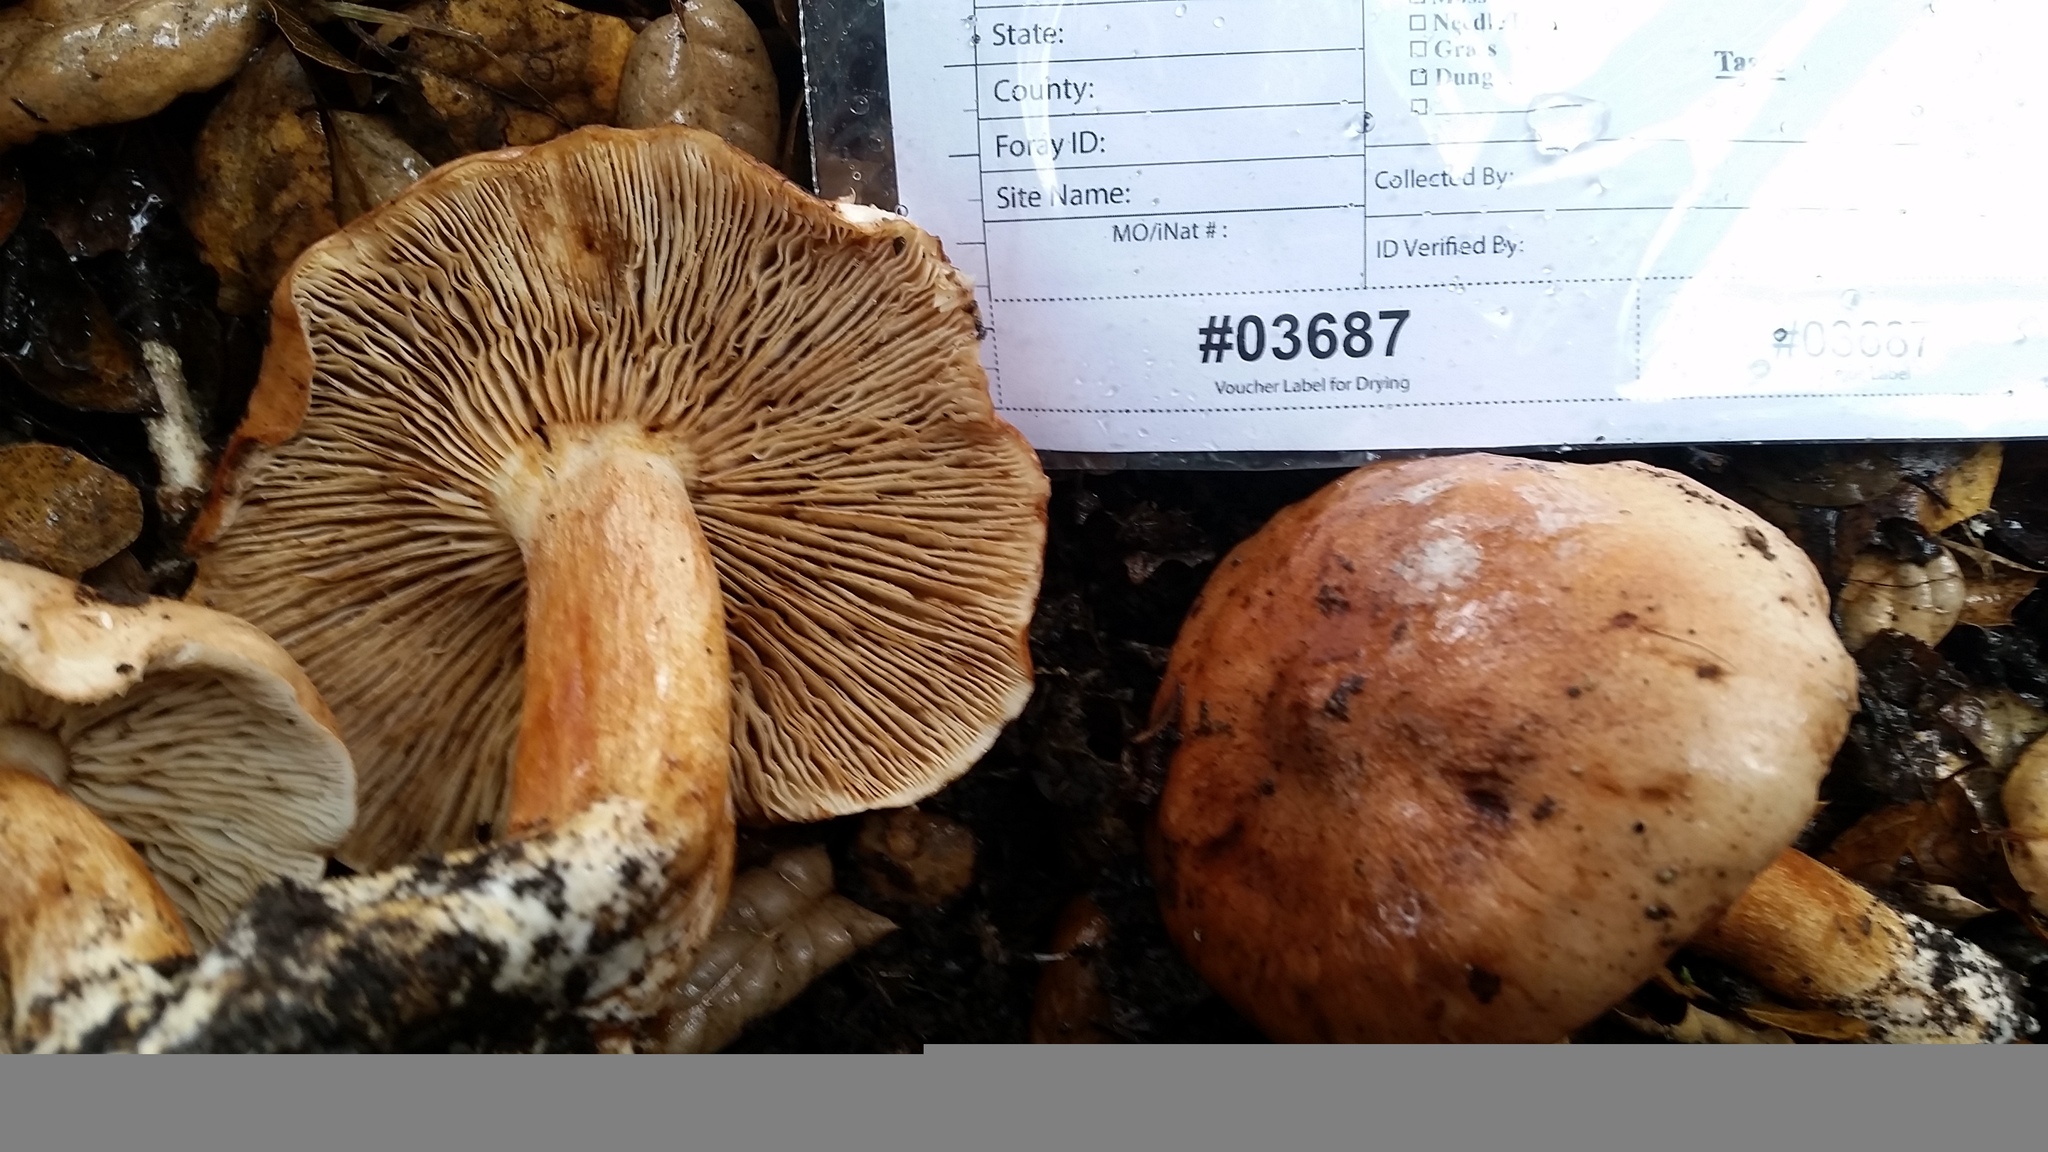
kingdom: Fungi
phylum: Basidiomycota
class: Agaricomycetes
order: Agaricales
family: Tricholomataceae
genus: Melanoleuca
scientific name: Melanoleuca dryophila
